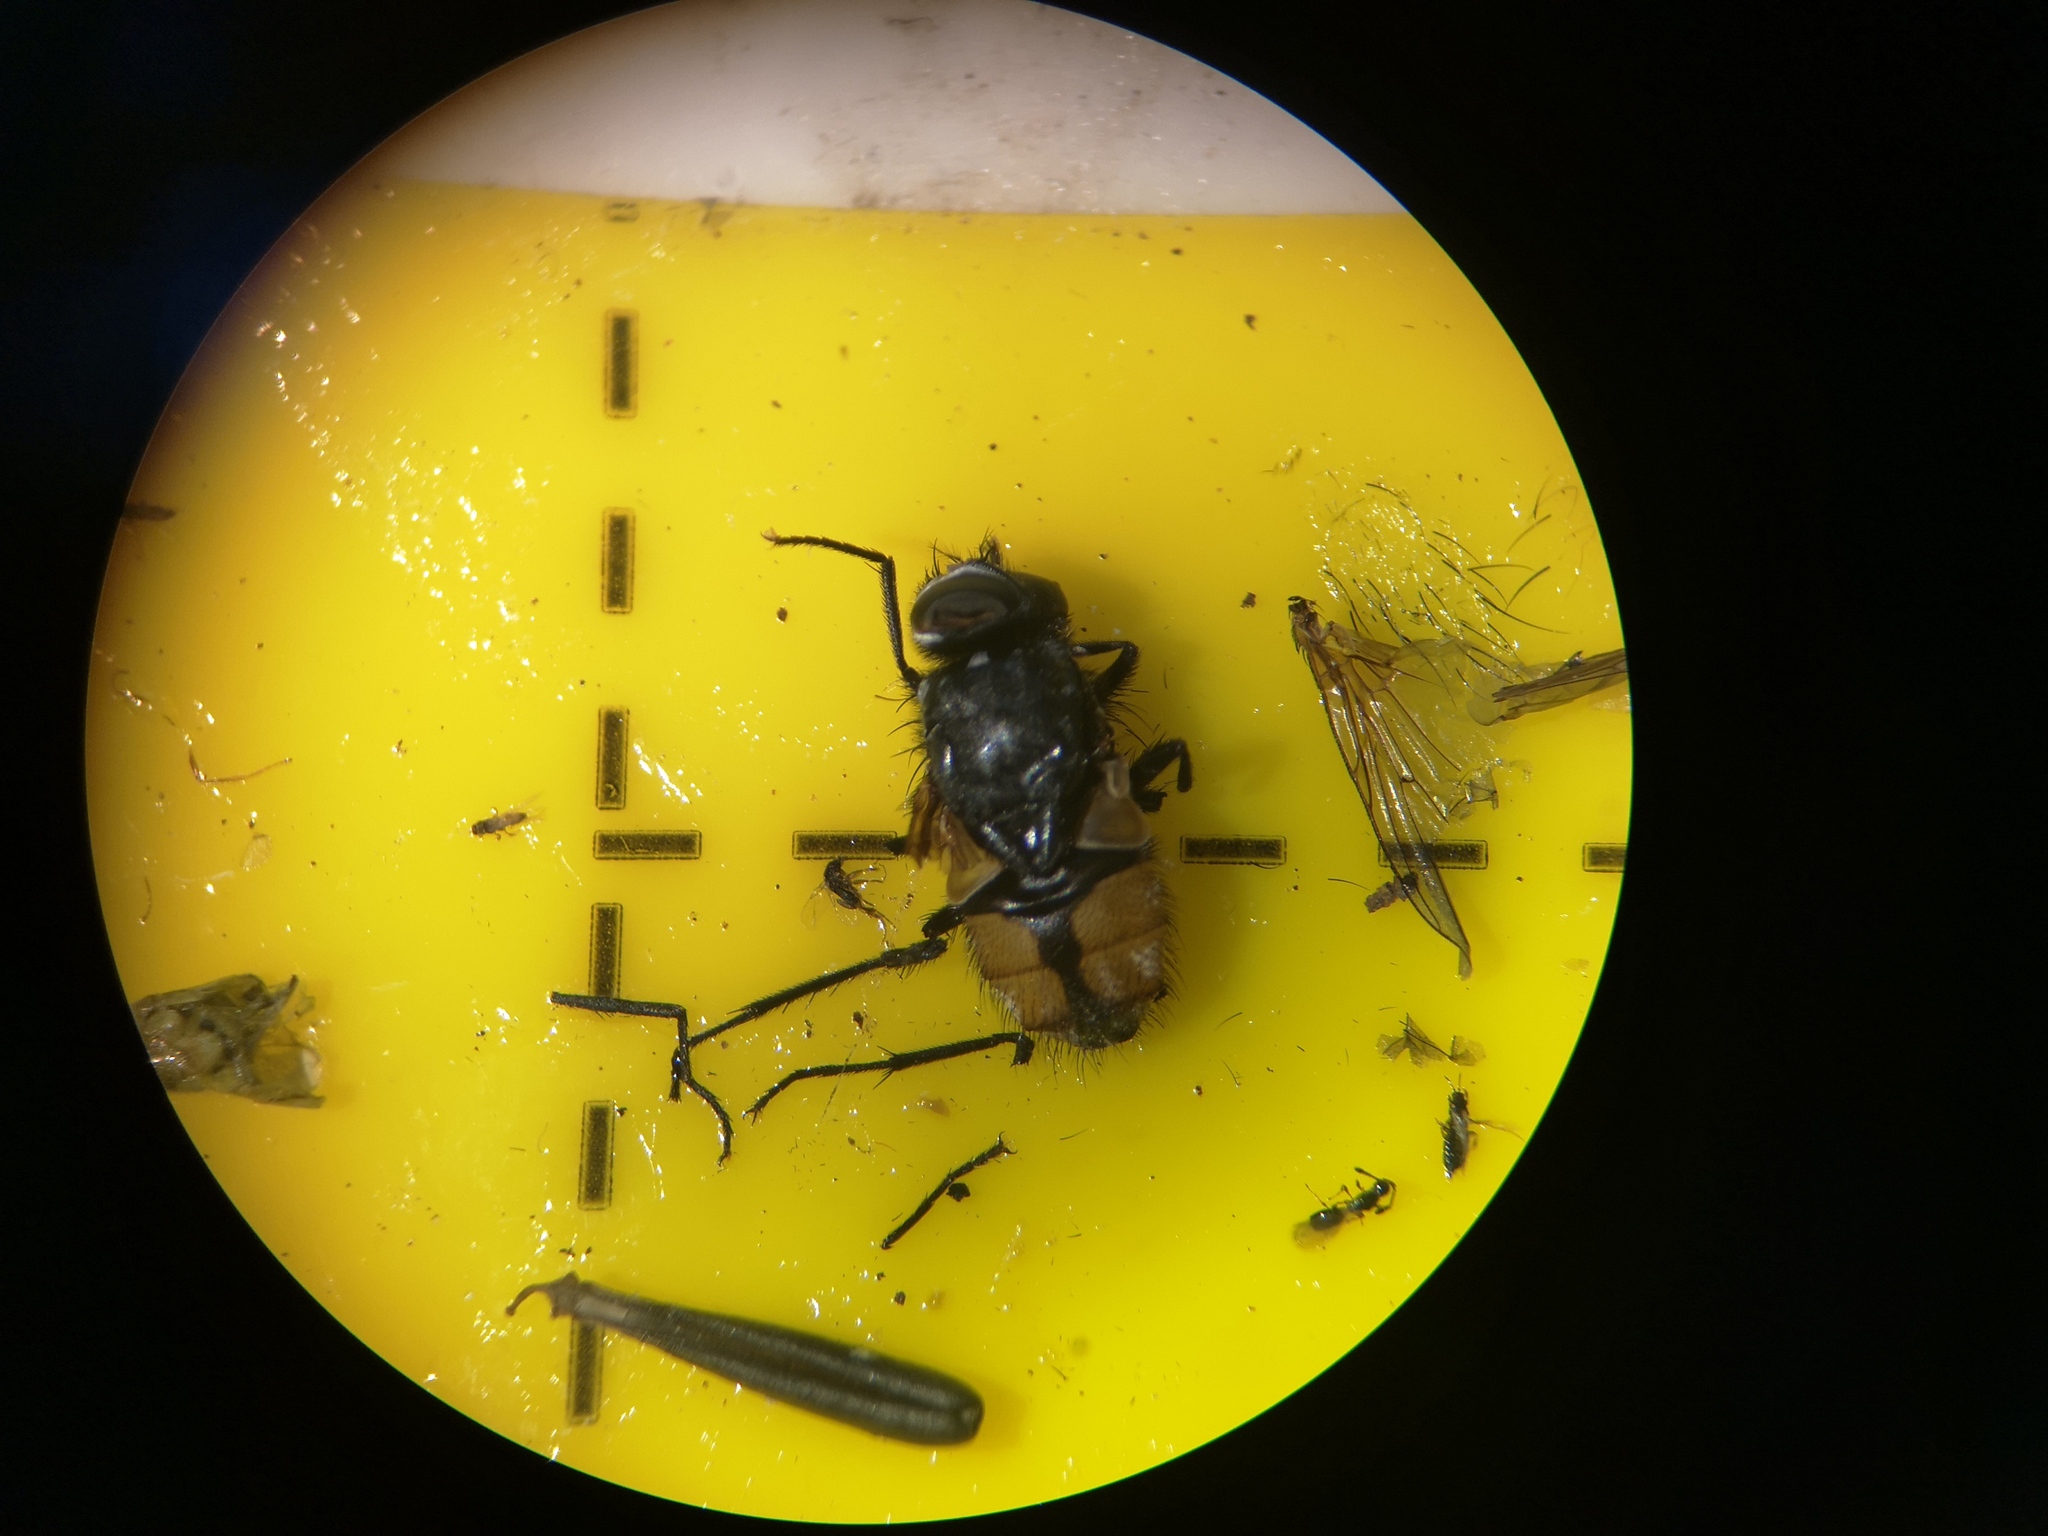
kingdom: Animalia
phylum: Arthropoda
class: Insecta
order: Diptera
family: Muscidae
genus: Musca
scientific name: Musca autumnalis
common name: Face fly
